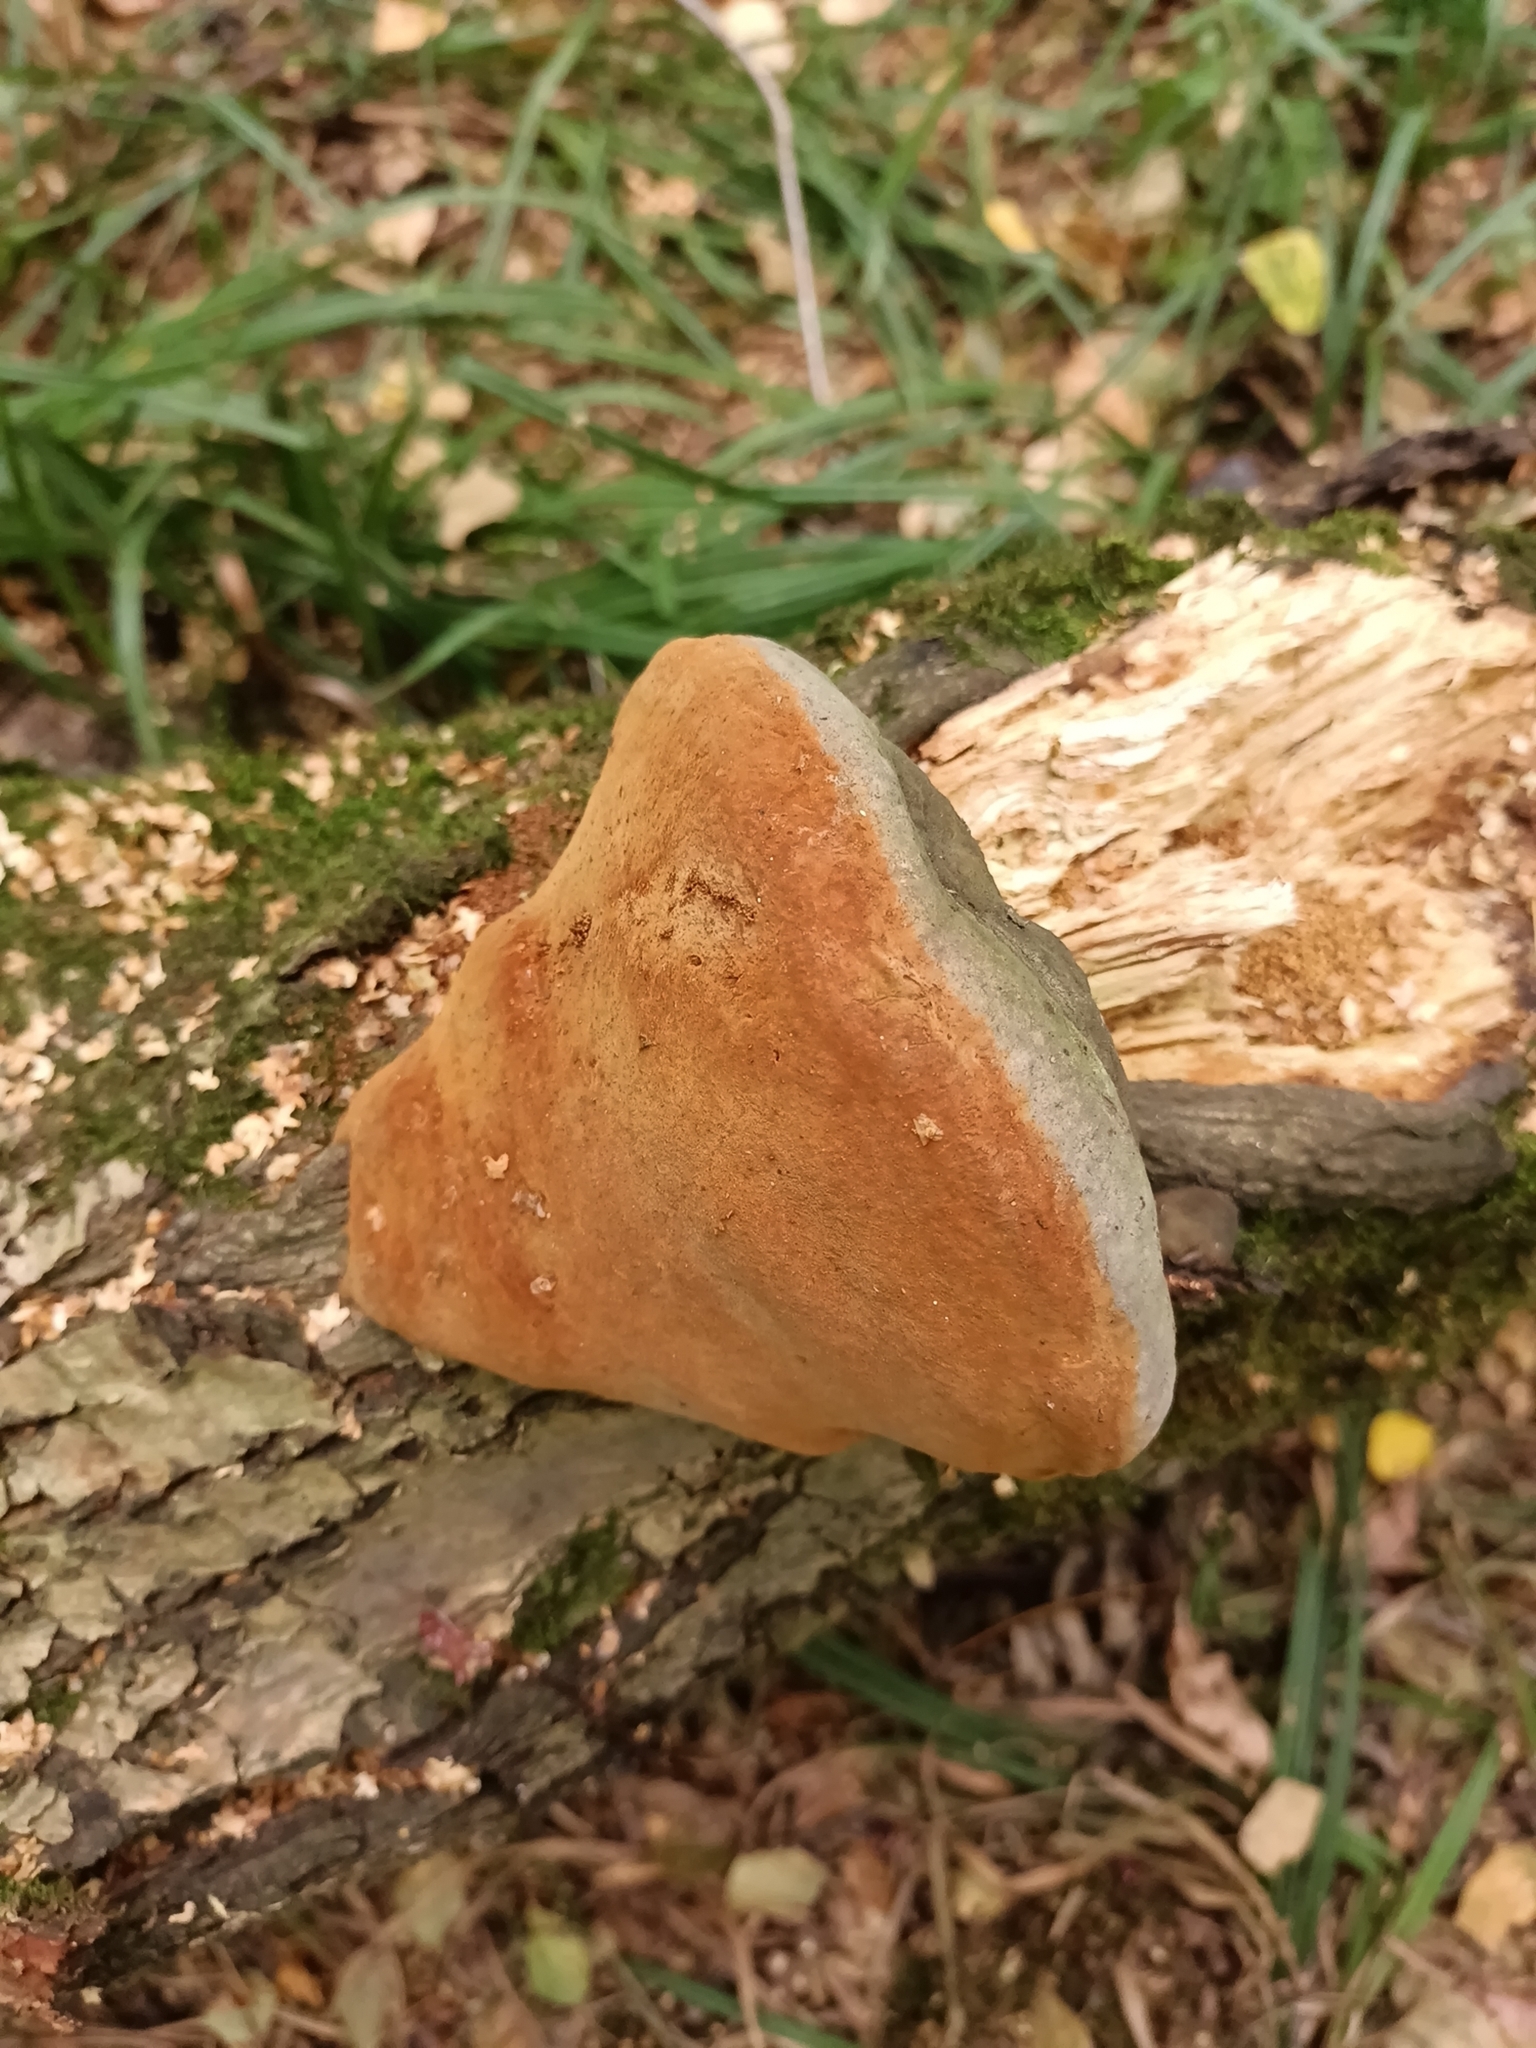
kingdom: Fungi
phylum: Basidiomycota
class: Agaricomycetes
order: Hymenochaetales
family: Hymenochaetaceae
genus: Fomitiporia
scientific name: Fomitiporia robusta
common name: Robust bracket
